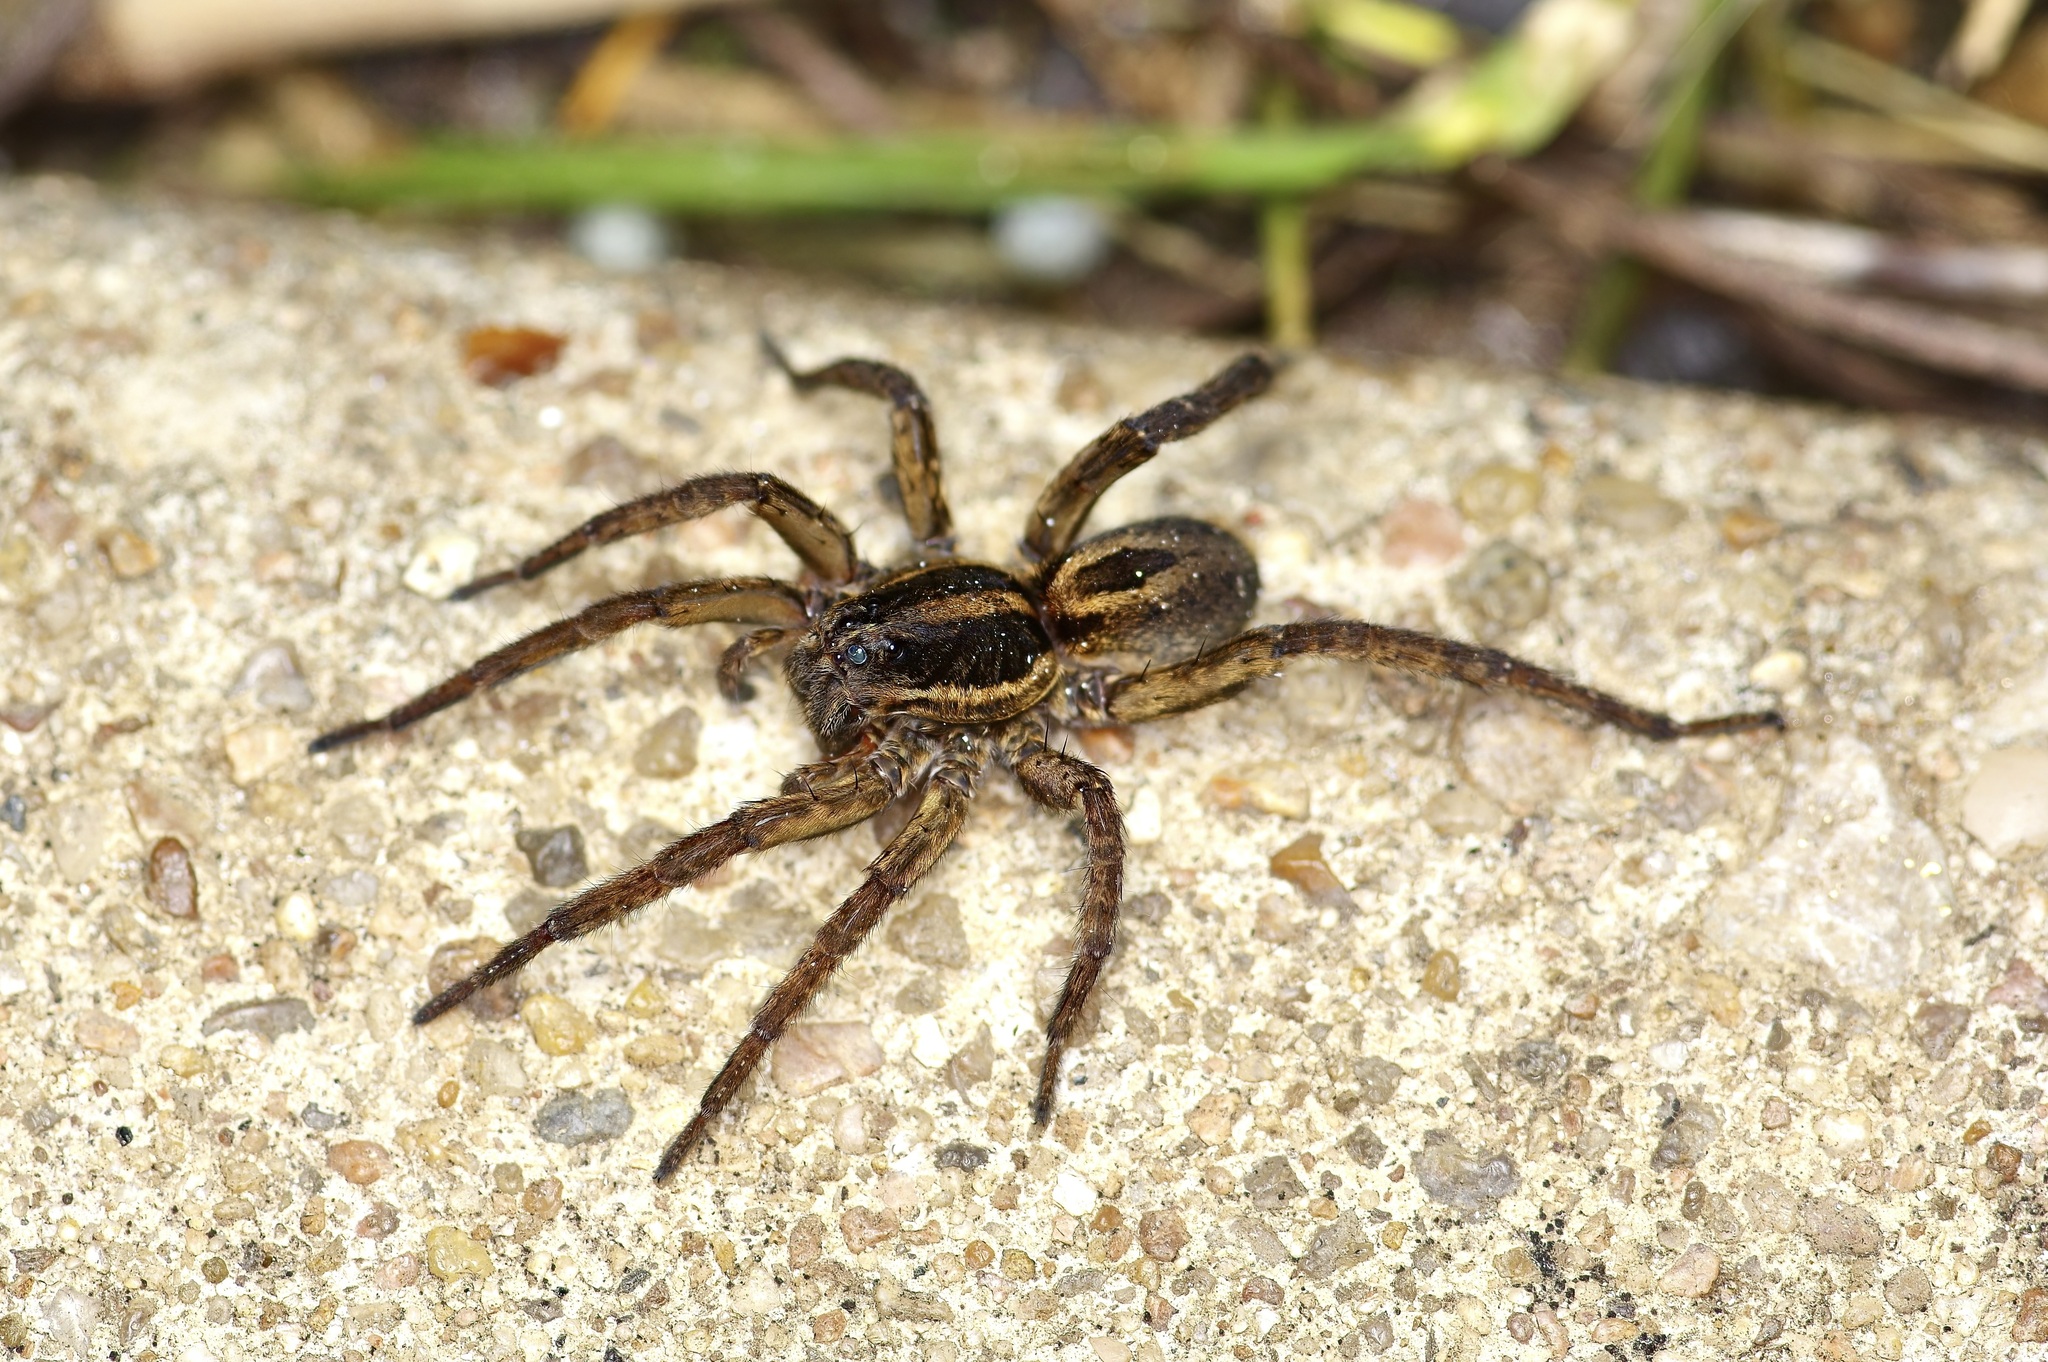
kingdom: Animalia
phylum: Arthropoda
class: Arachnida
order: Araneae
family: Lycosidae
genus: Tigrosa
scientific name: Tigrosa annexa
